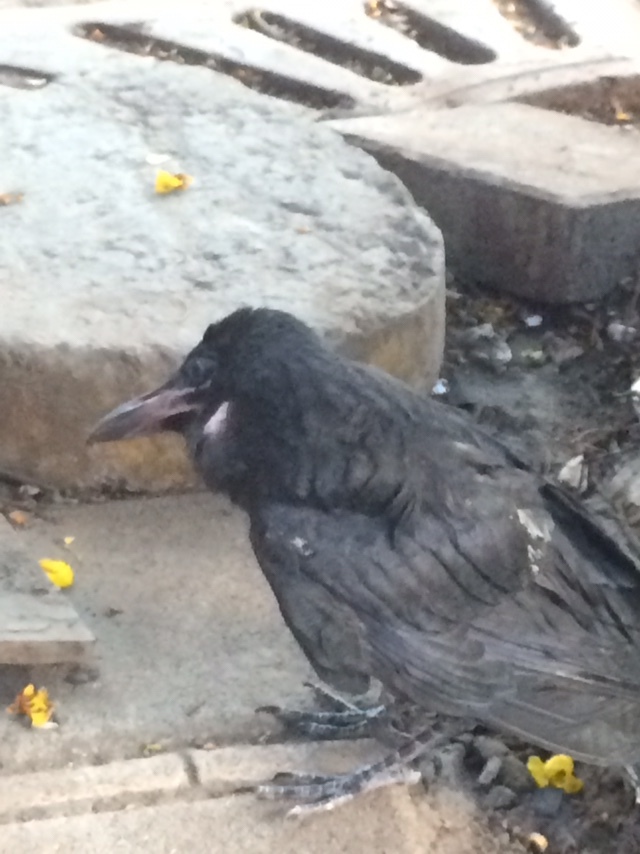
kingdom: Animalia
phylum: Chordata
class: Aves
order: Passeriformes
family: Corvidae
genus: Corvus
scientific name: Corvus macrorhynchos
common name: Large-billed crow
